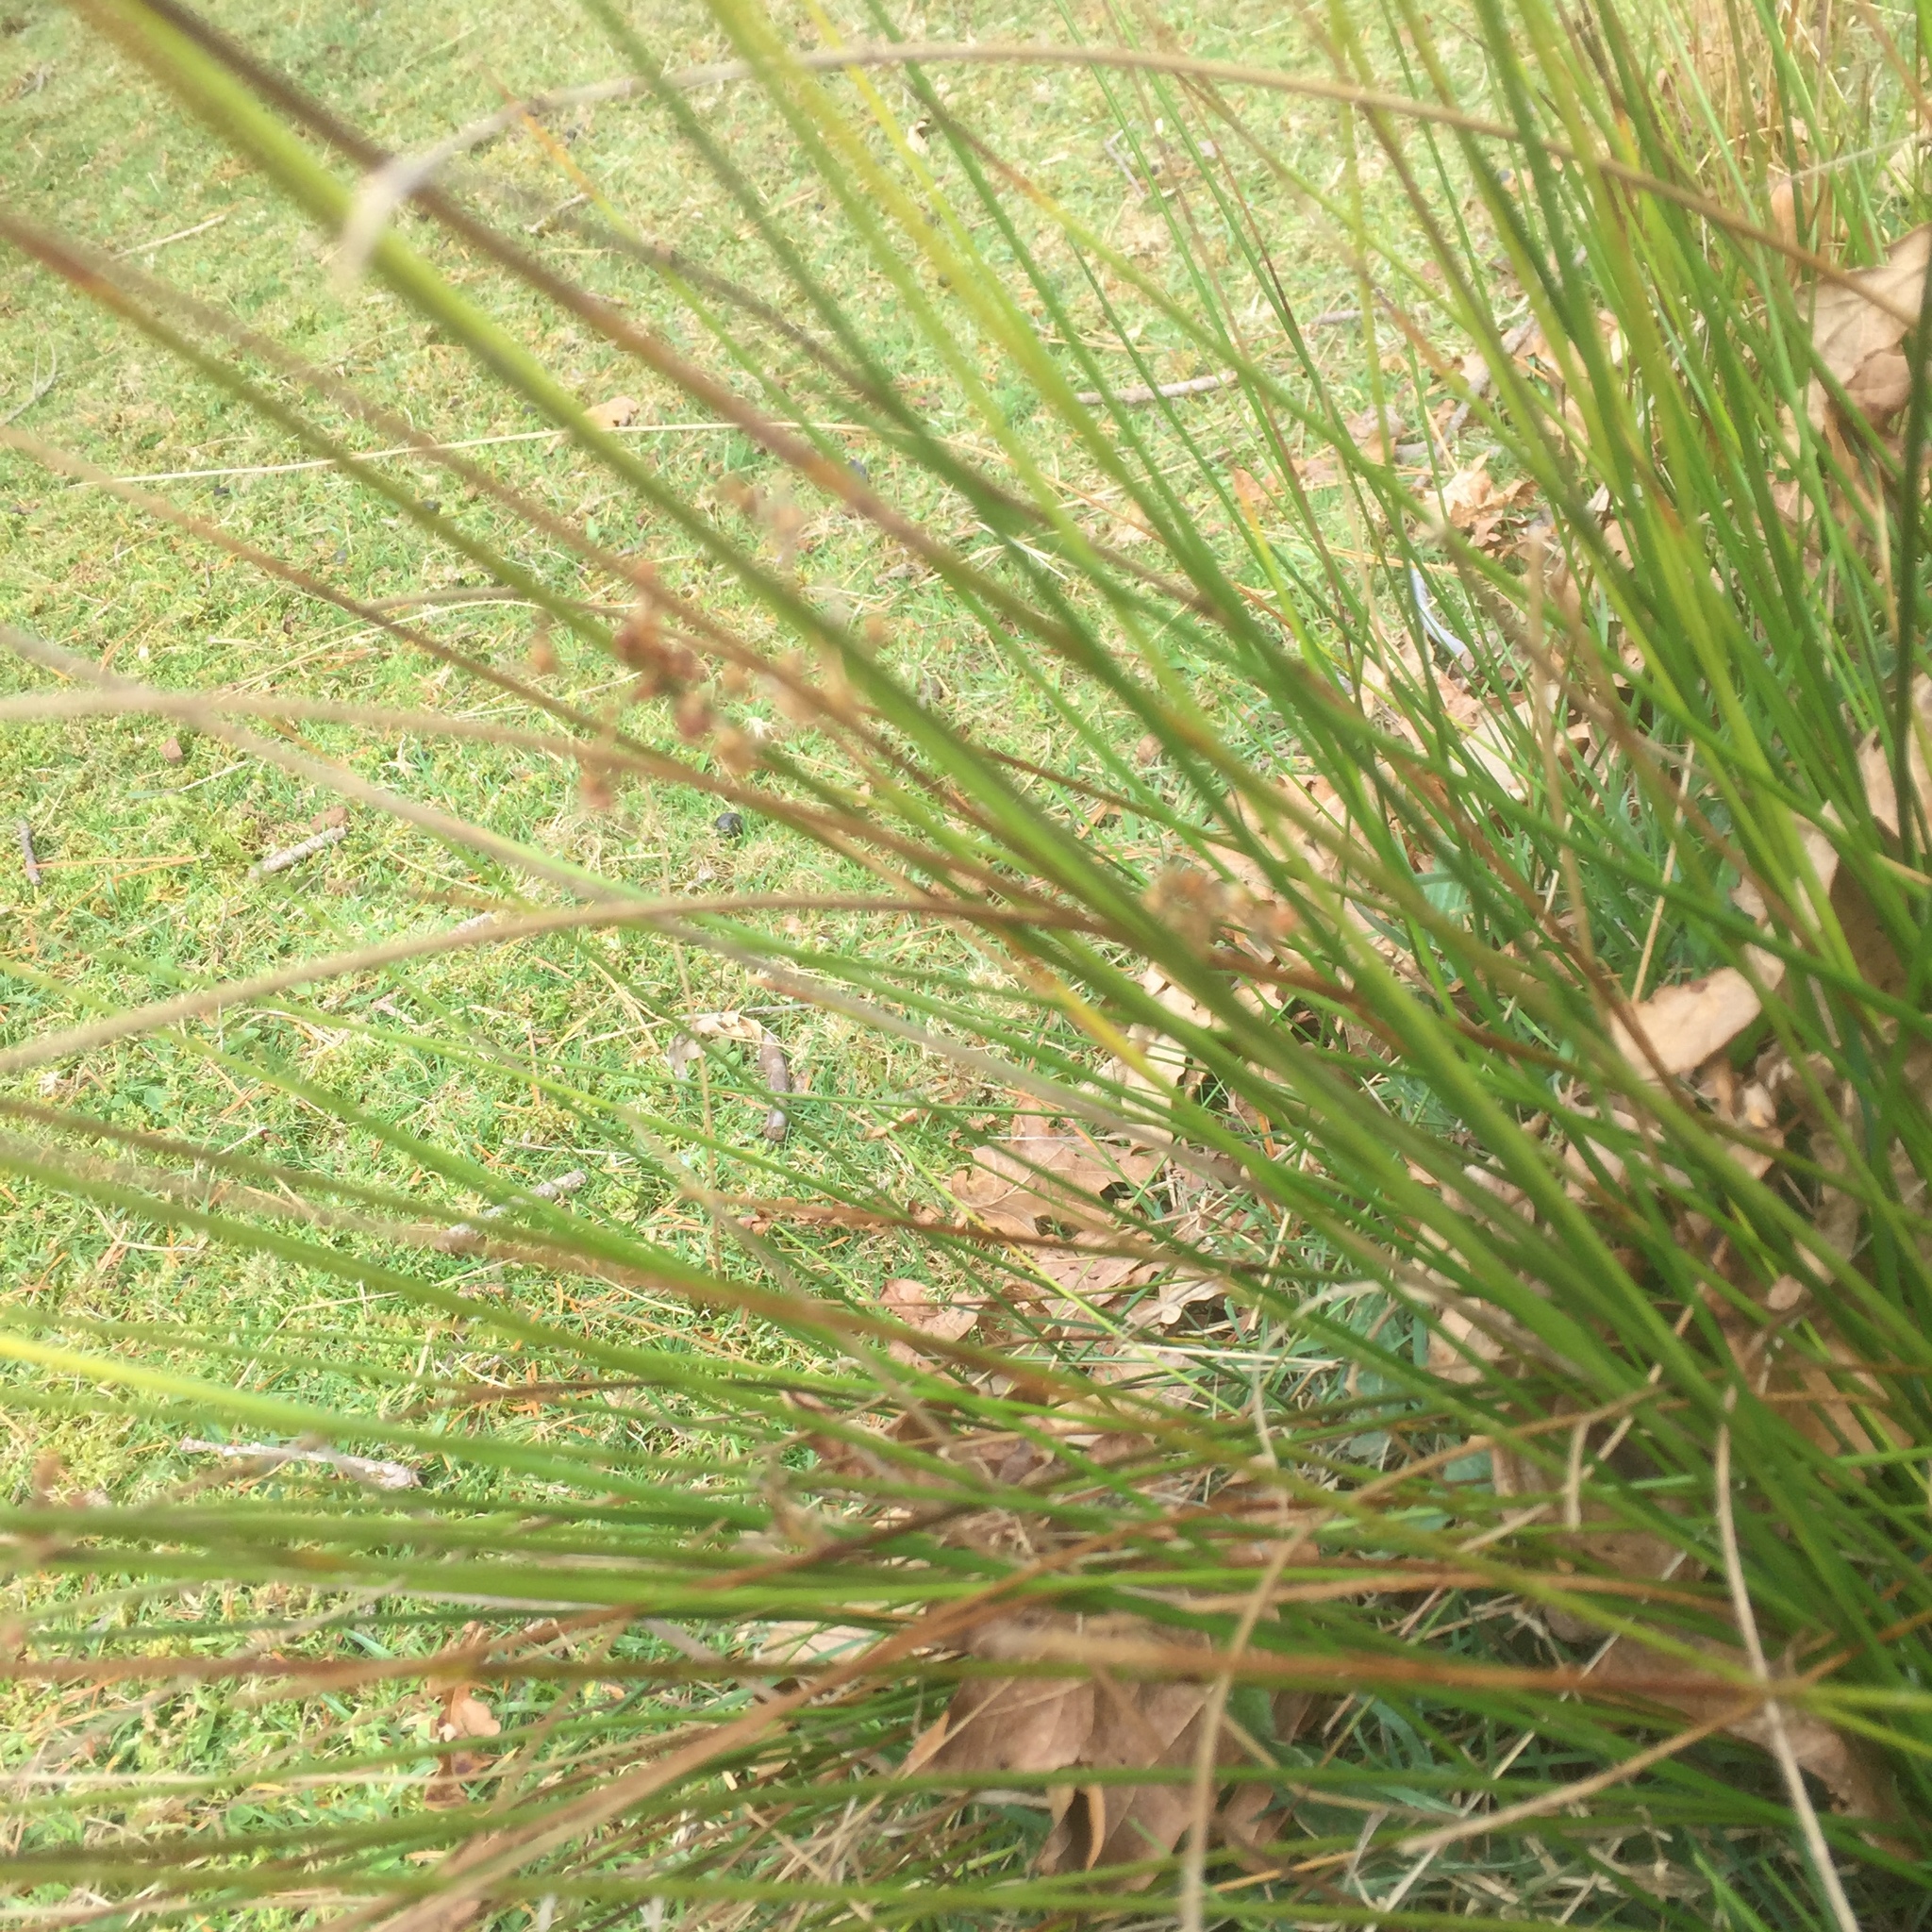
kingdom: Plantae
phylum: Tracheophyta
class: Liliopsida
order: Poales
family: Juncaceae
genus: Juncus
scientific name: Juncus effusus
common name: Soft rush
